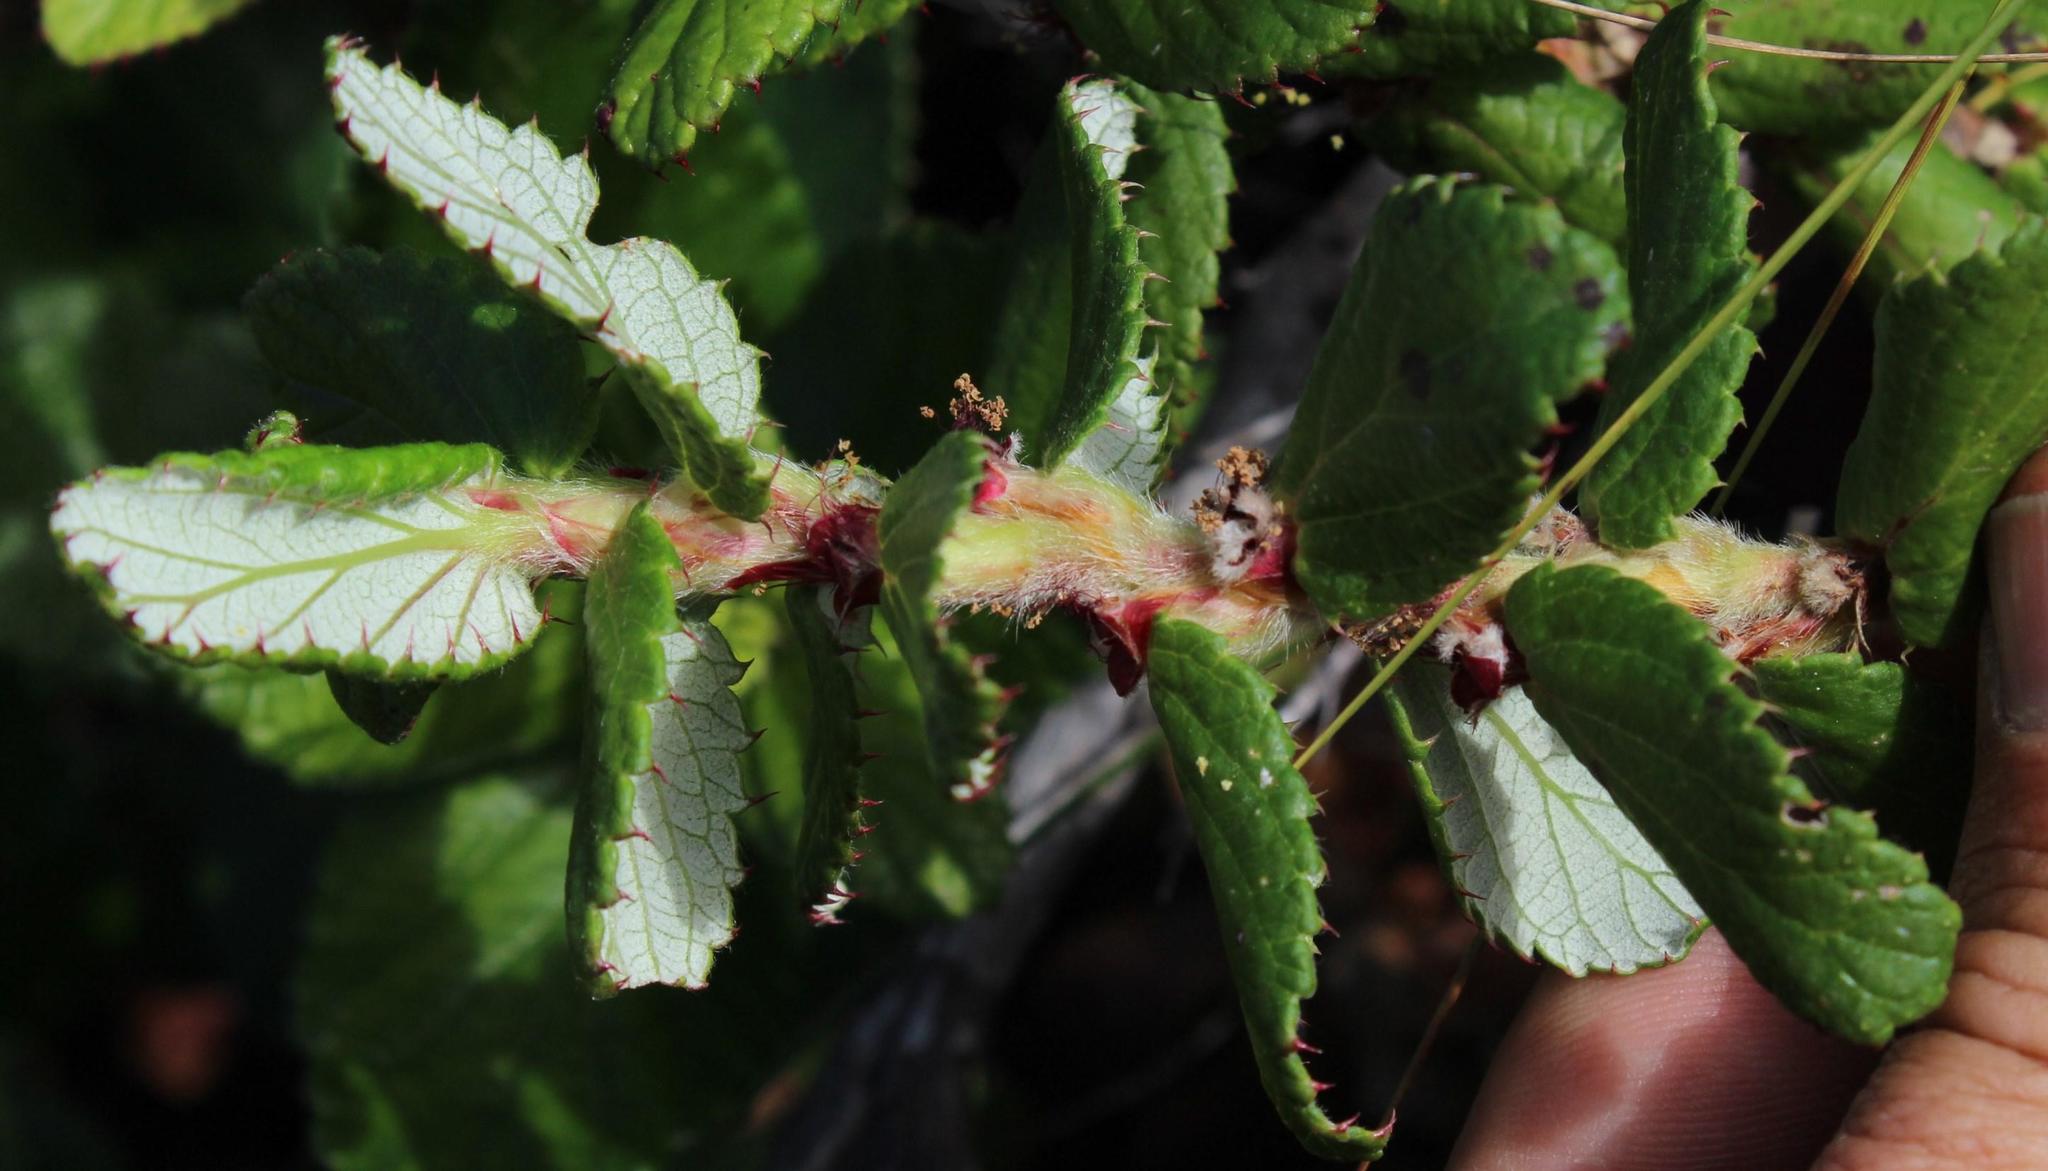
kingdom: Plantae
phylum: Tracheophyta
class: Magnoliopsida
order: Rosales
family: Rosaceae
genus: Cliffortia
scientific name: Cliffortia hirsuta
